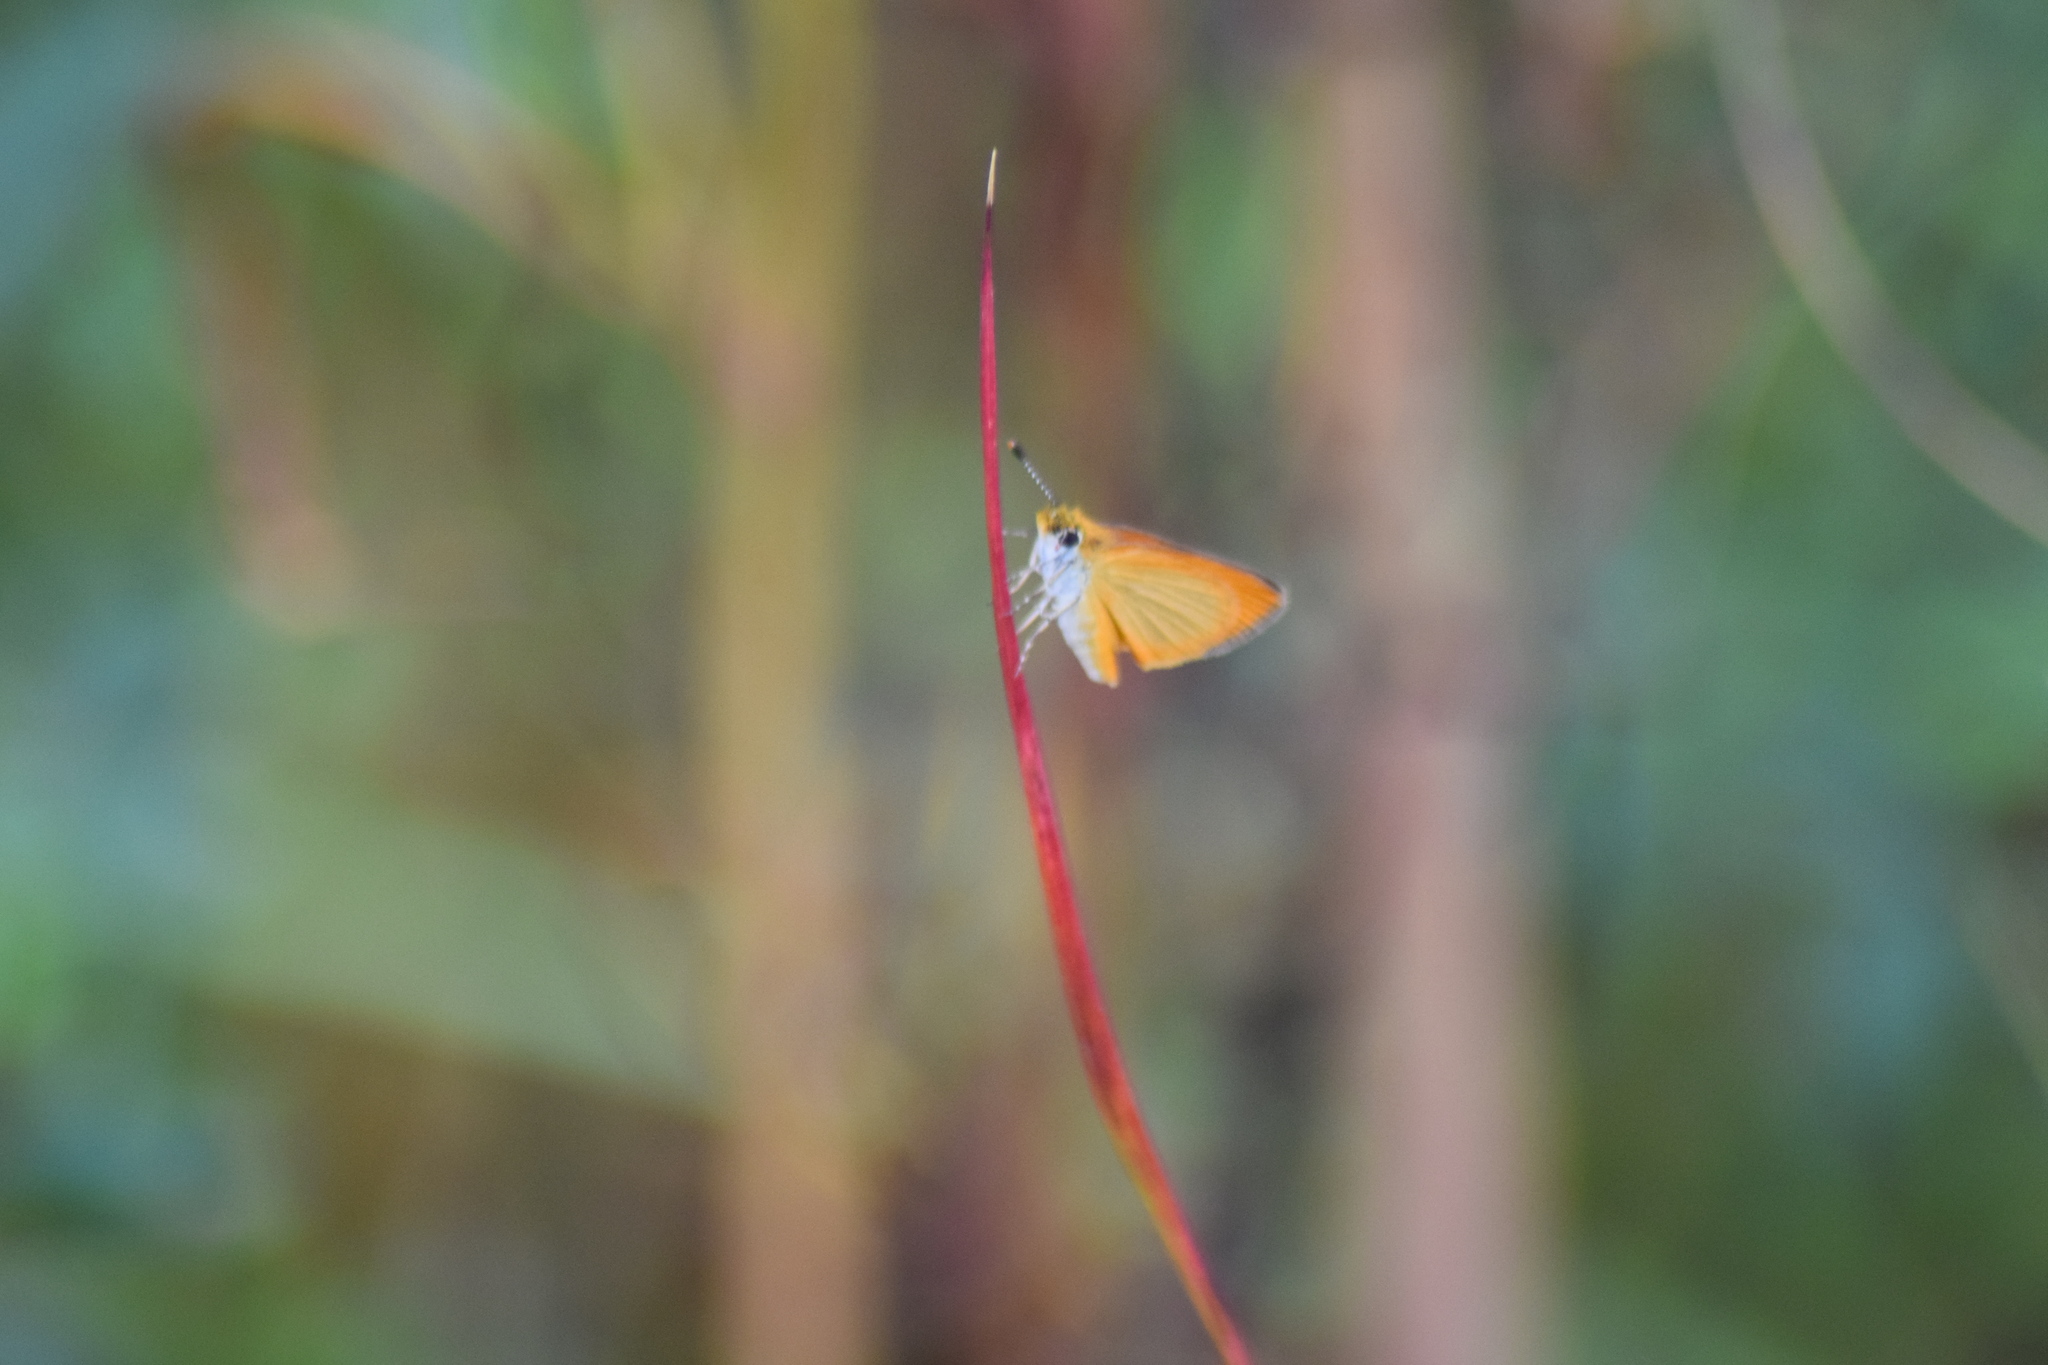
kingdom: Animalia
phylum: Arthropoda
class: Insecta
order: Lepidoptera
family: Hesperiidae
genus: Ancyloxypha
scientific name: Ancyloxypha numitor
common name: Least skipper
